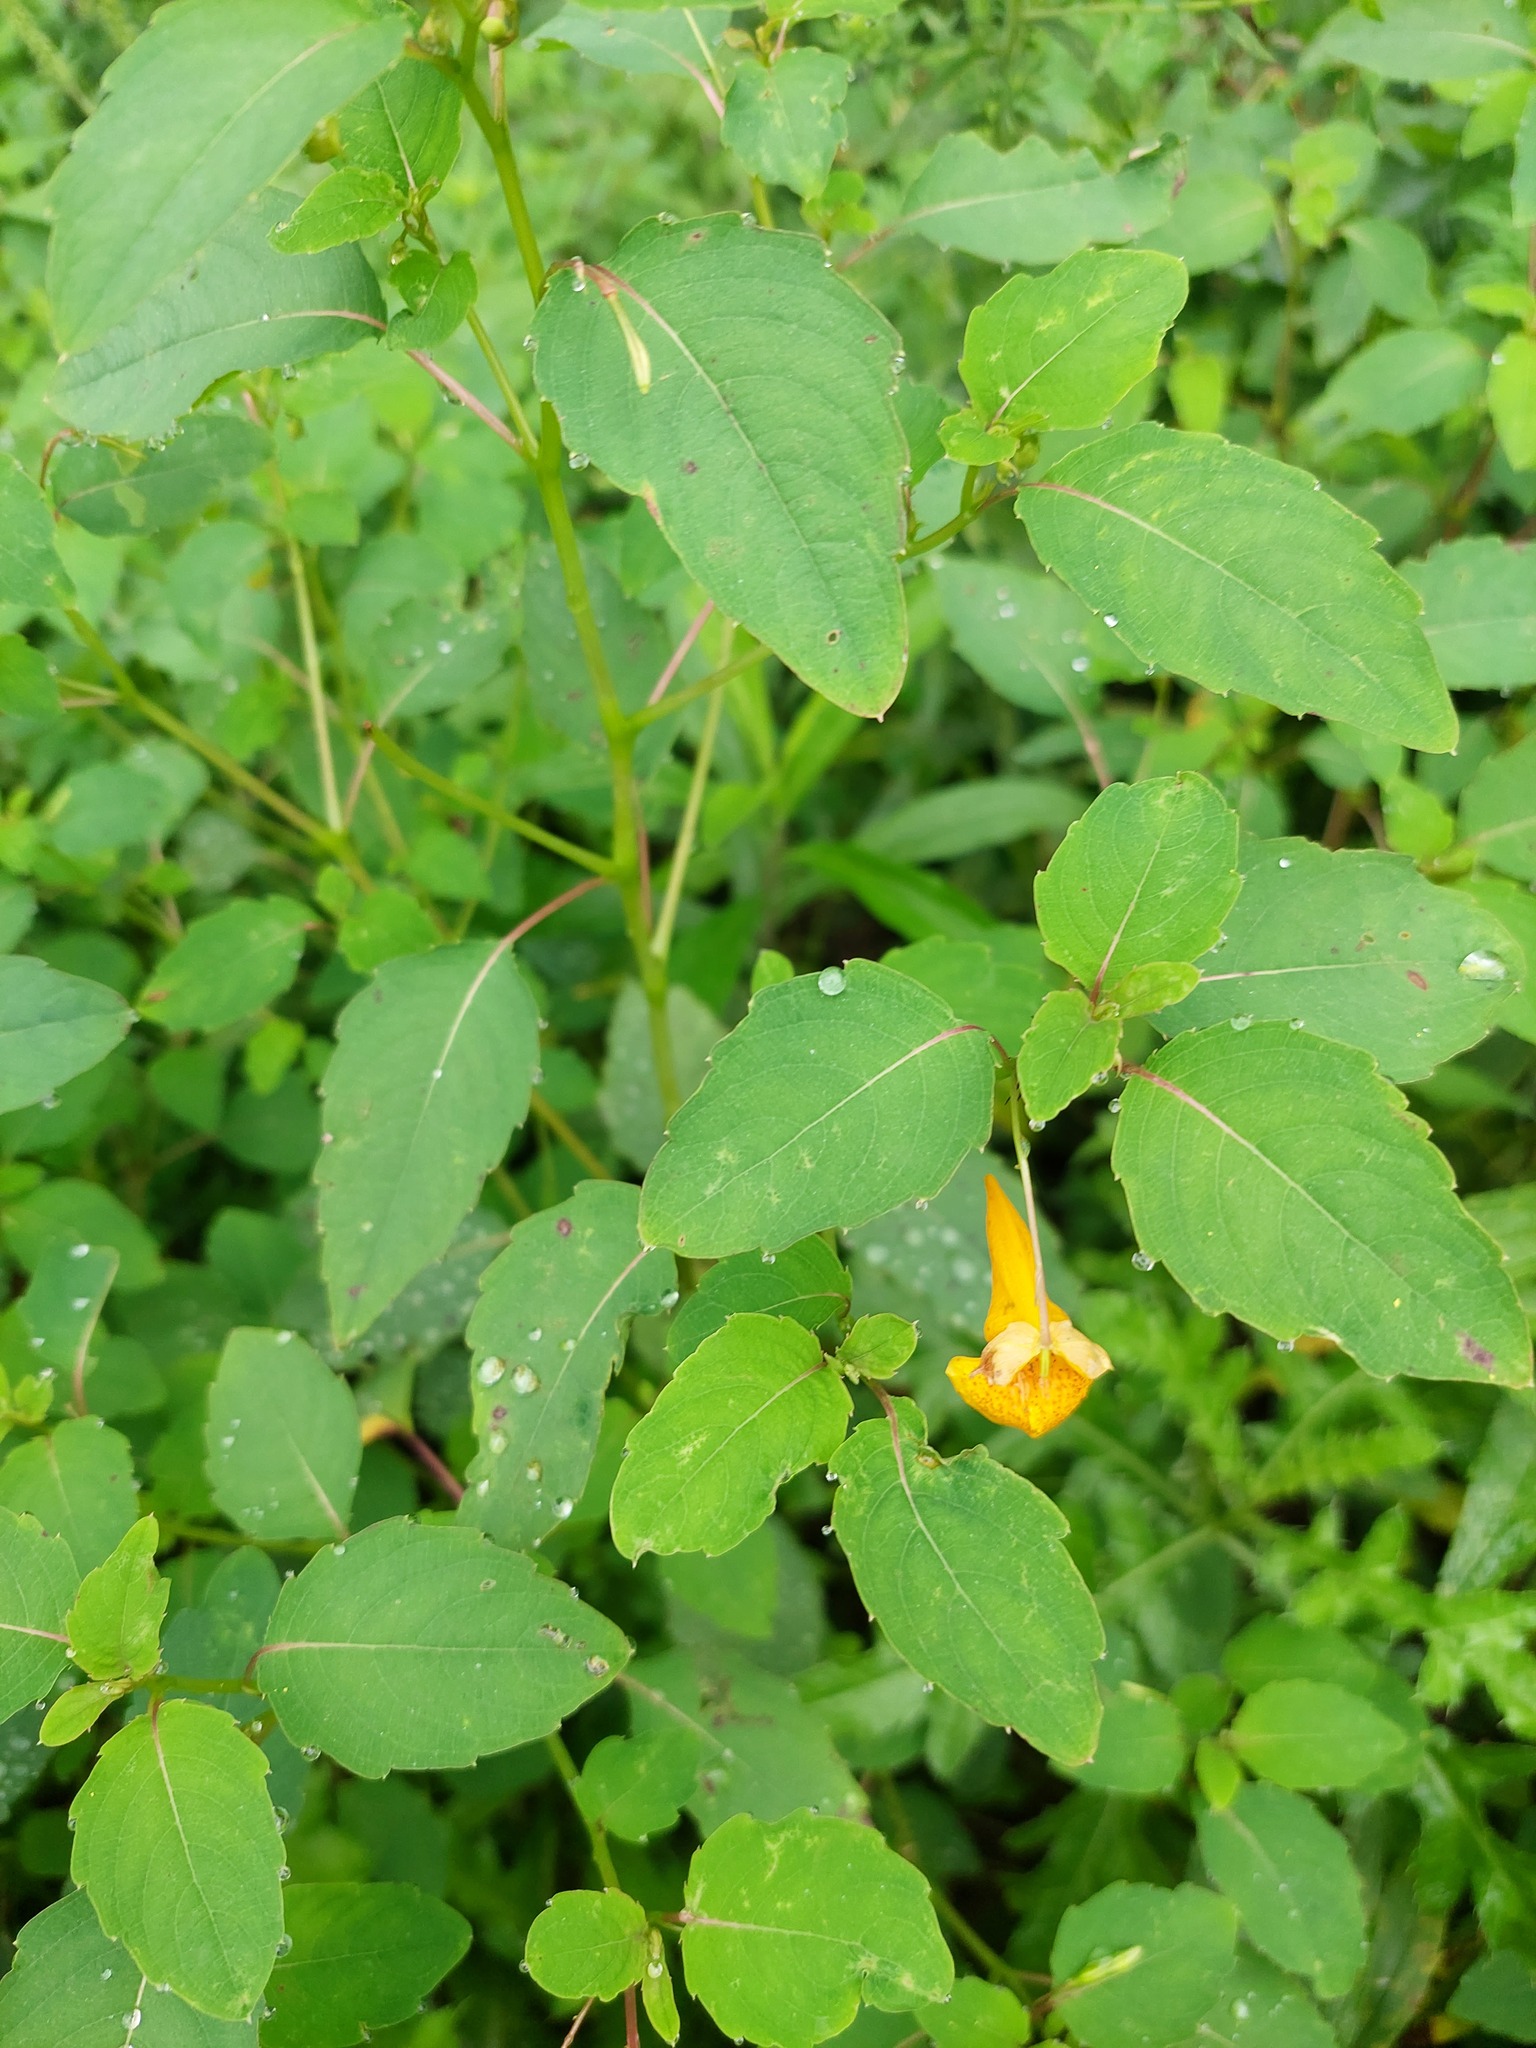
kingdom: Plantae
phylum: Tracheophyta
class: Magnoliopsida
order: Ericales
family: Balsaminaceae
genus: Impatiens
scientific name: Impatiens capensis
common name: Orange balsam
